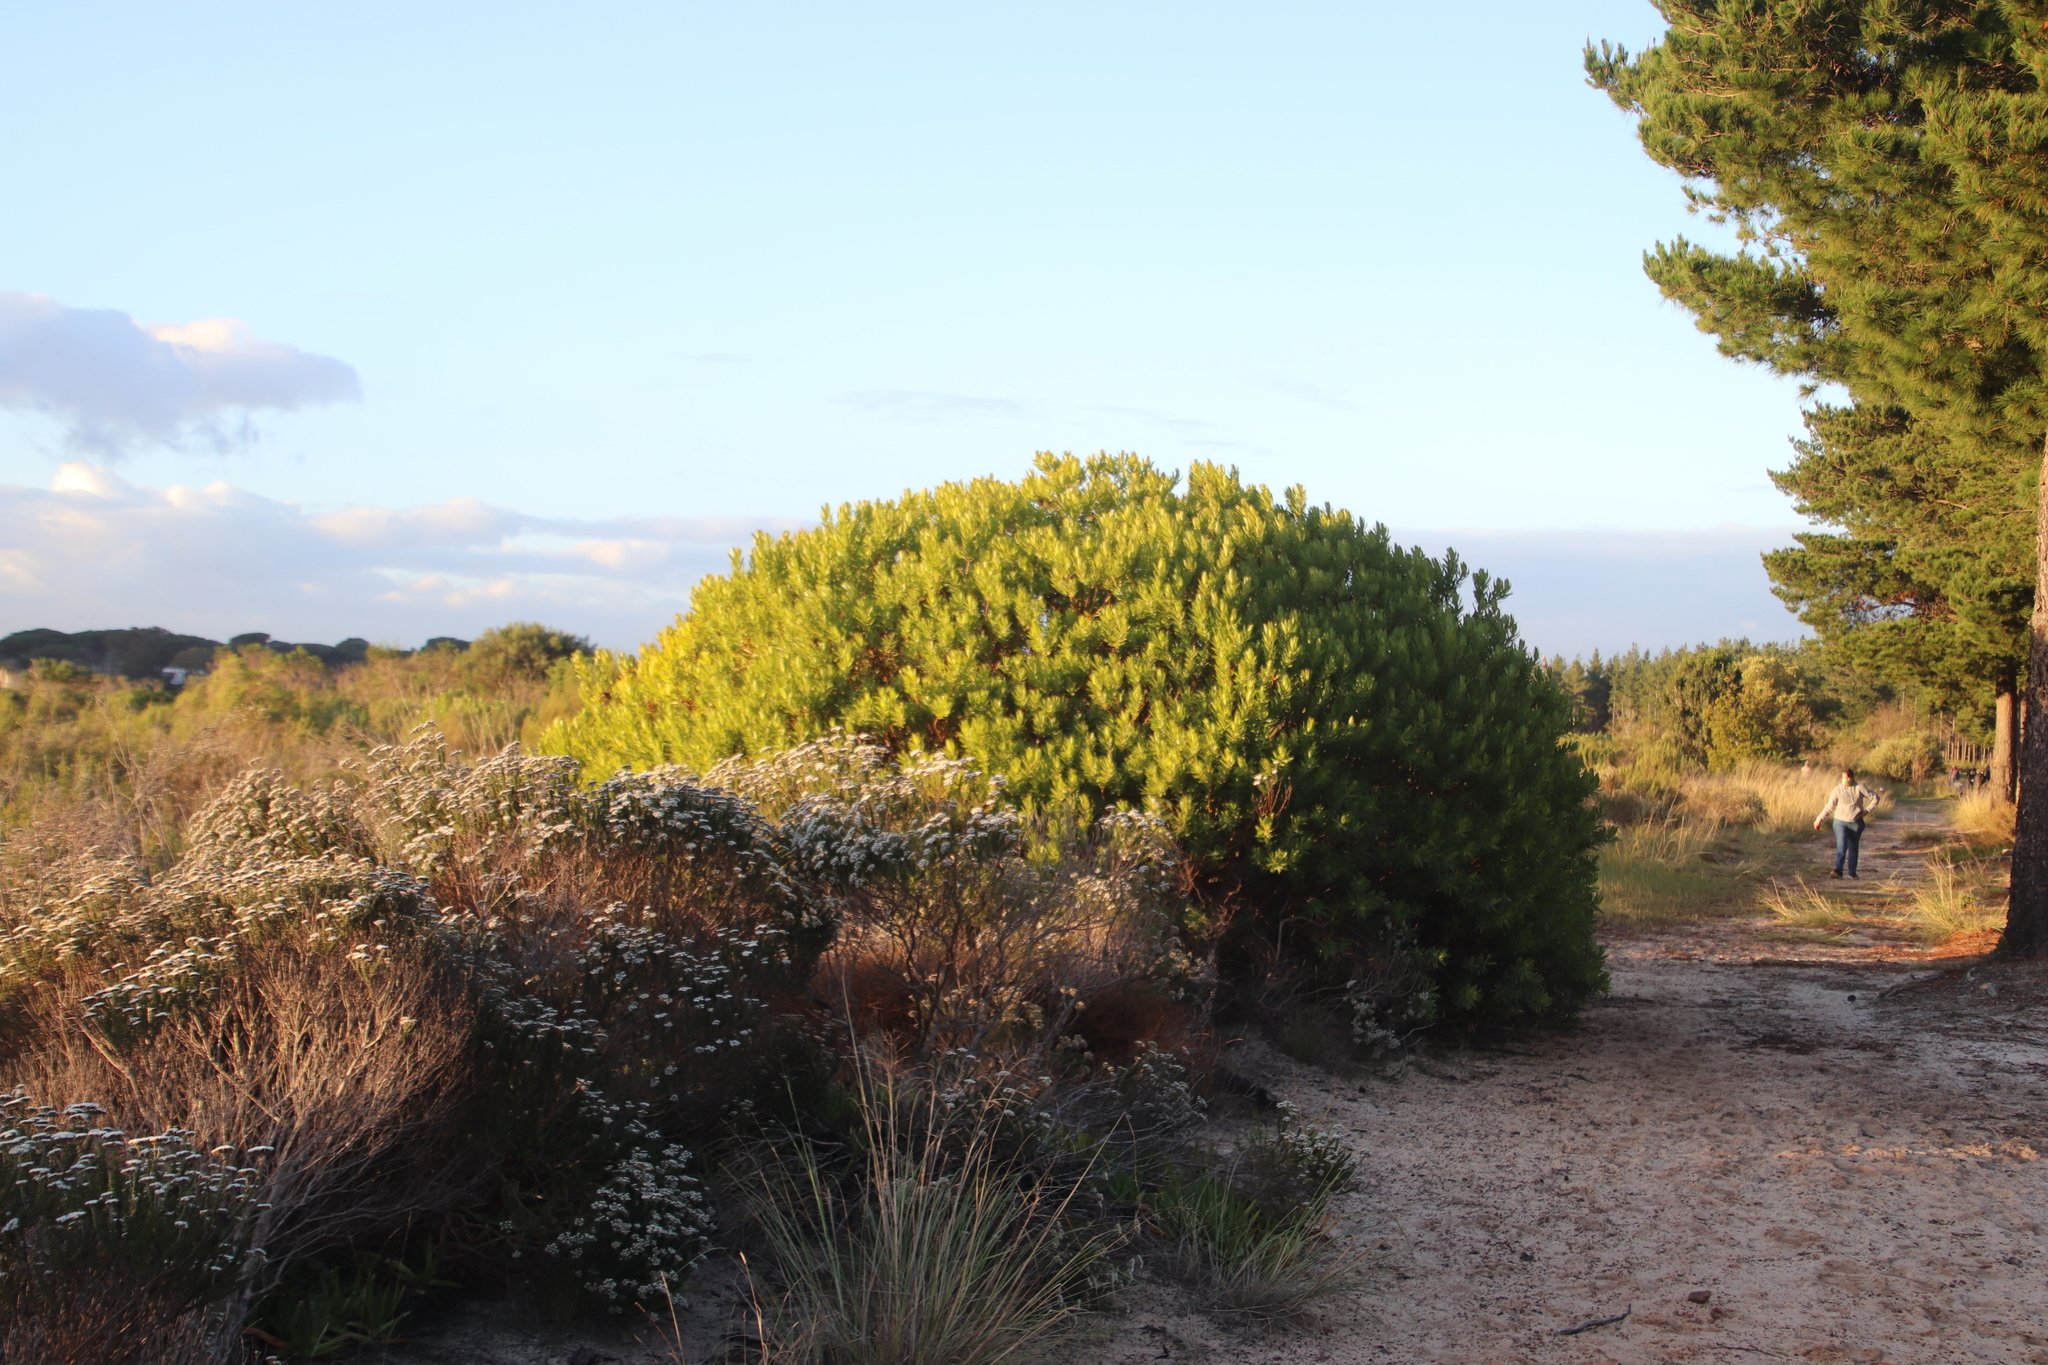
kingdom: Plantae
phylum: Tracheophyta
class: Magnoliopsida
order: Proteales
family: Proteaceae
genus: Leucadendron
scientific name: Leucadendron laureolum
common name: Golden sunshinebush
